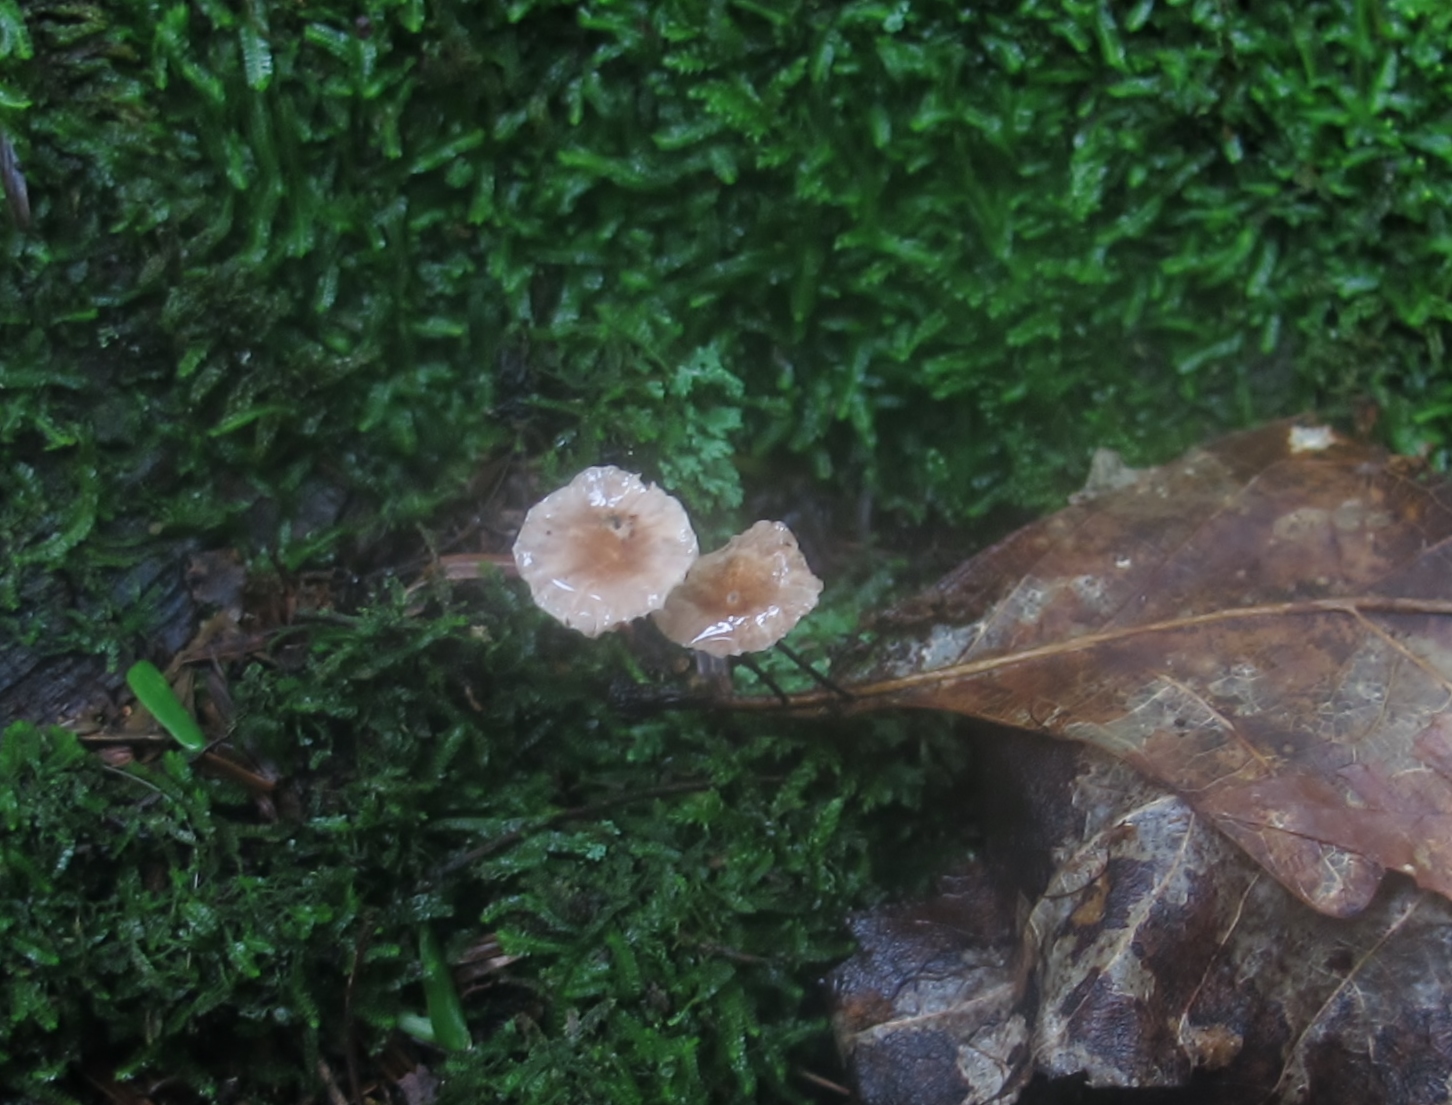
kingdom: Fungi
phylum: Basidiomycota
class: Agaricomycetes
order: Agaricales
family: Omphalotaceae
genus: Gymnopus
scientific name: Gymnopus androsaceus
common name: Horse-hair fungus
